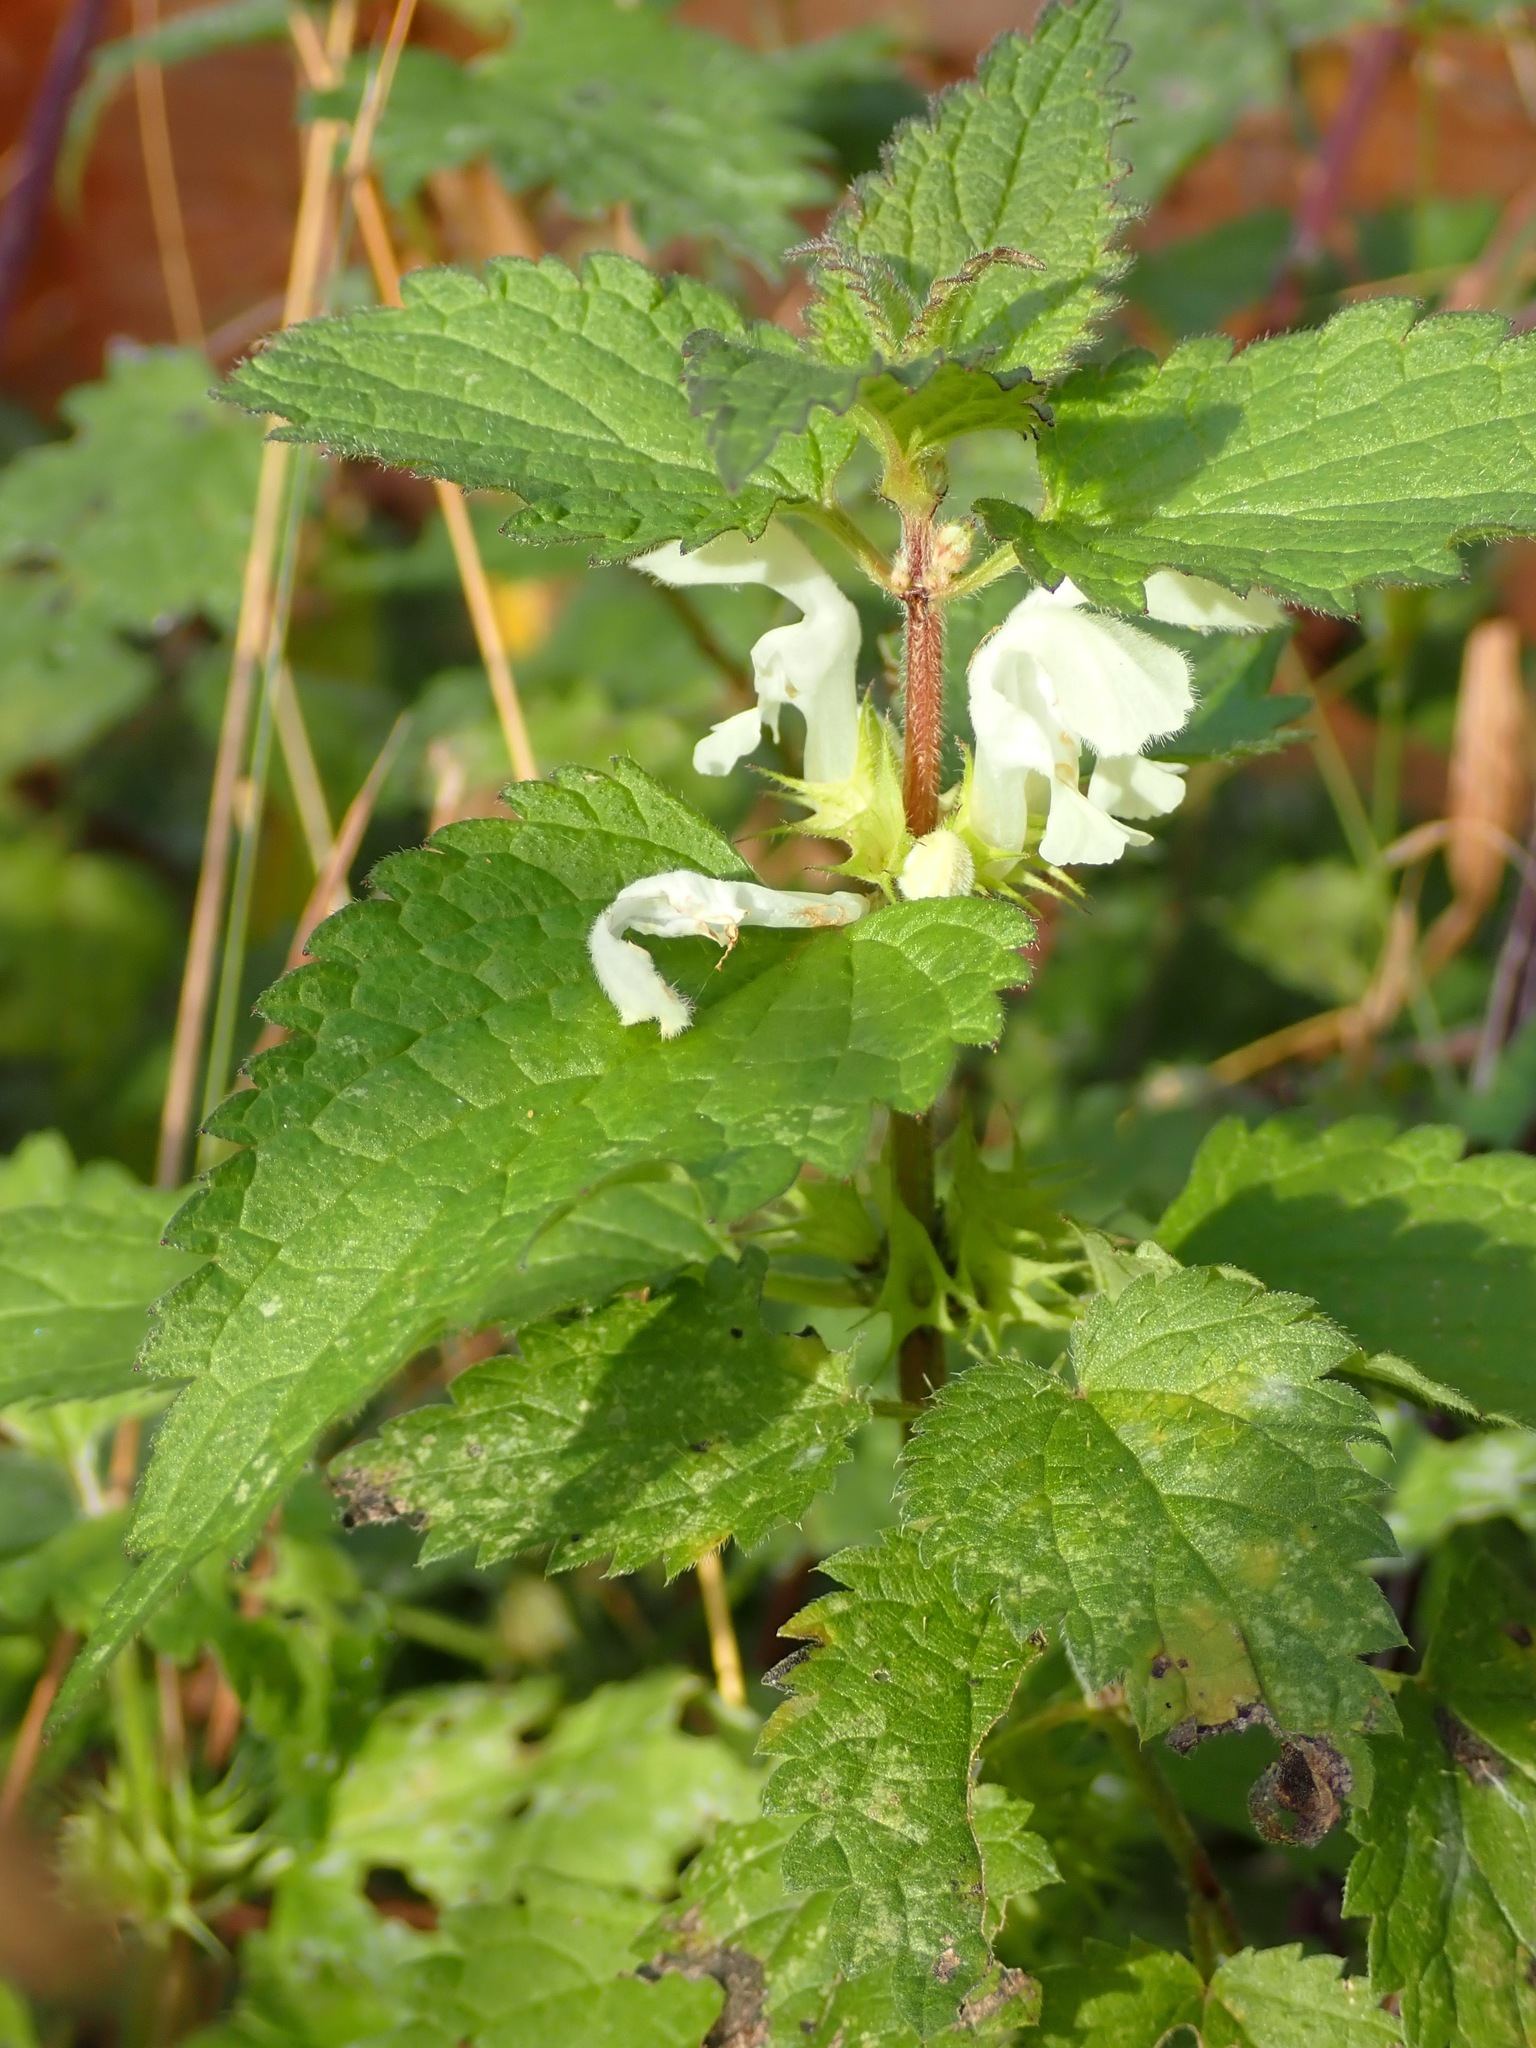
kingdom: Plantae
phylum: Tracheophyta
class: Magnoliopsida
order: Lamiales
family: Lamiaceae
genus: Lamium
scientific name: Lamium album
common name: White dead-nettle
